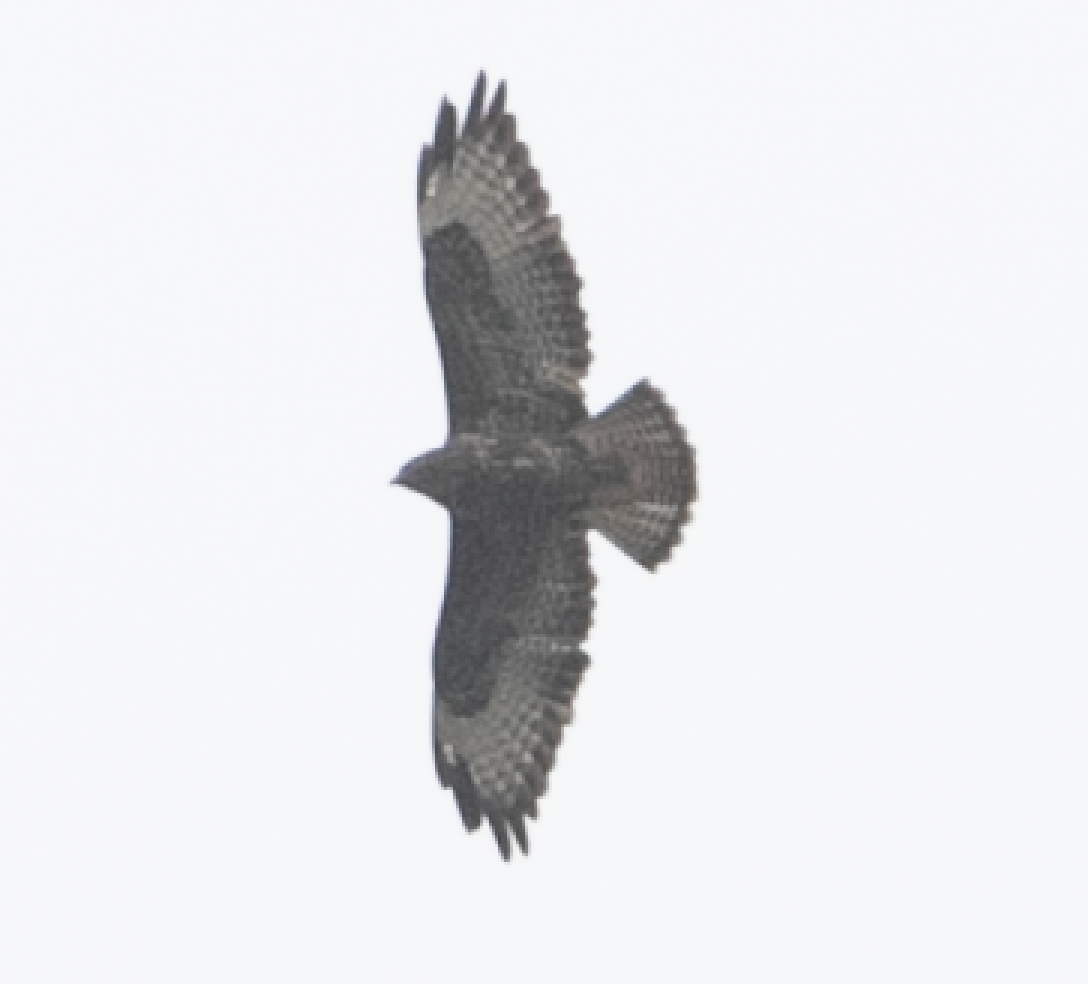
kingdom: Animalia
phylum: Chordata
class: Aves
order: Accipitriformes
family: Accipitridae
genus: Buteo
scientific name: Buteo buteo
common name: Common buzzard
